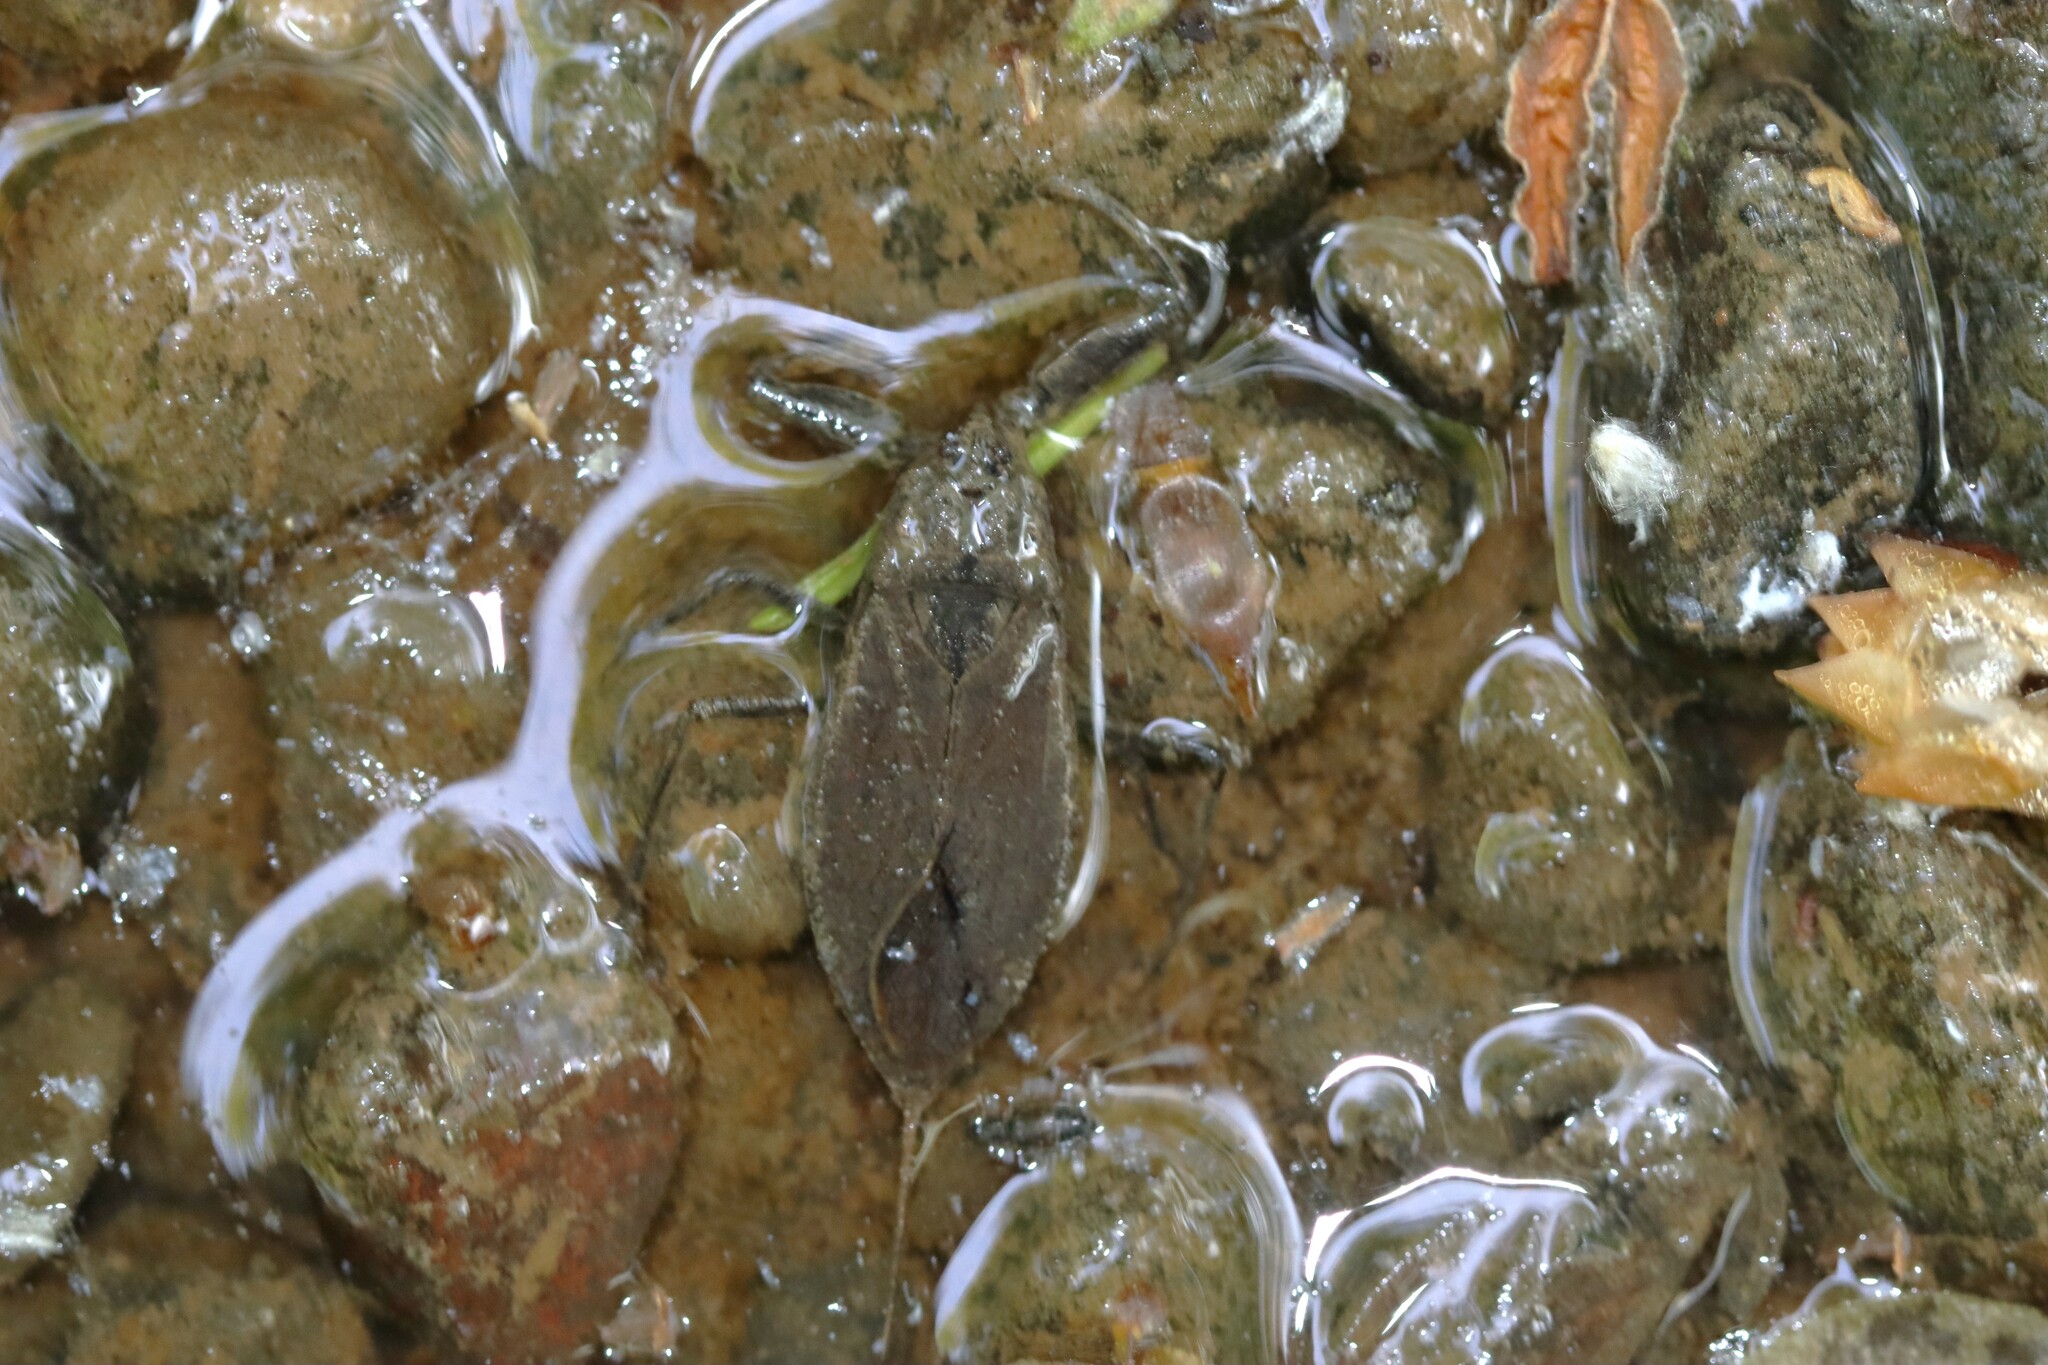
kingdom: Animalia
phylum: Arthropoda
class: Insecta
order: Hemiptera
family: Nepidae
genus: Nepa
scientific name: Nepa cinerea
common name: Water scorpion
